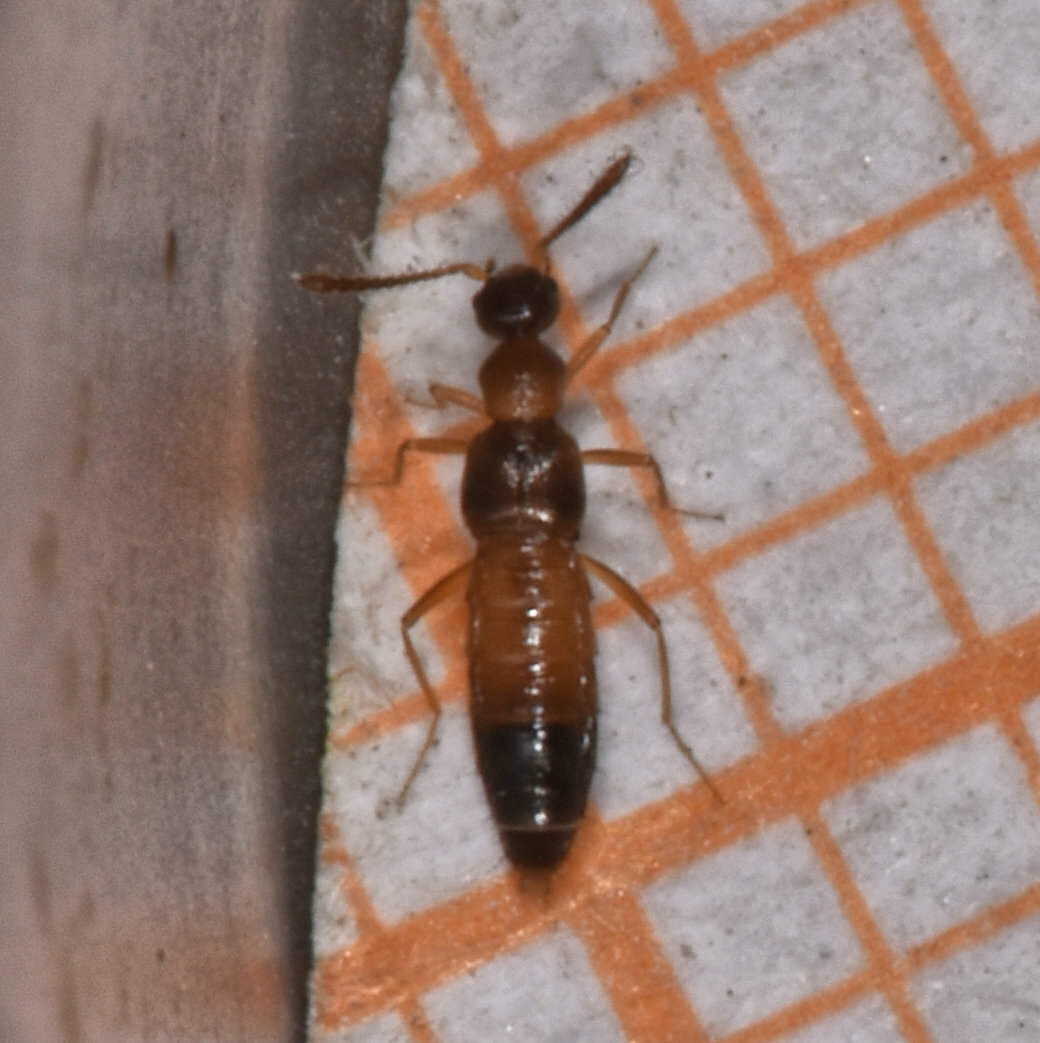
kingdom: Animalia
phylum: Arthropoda
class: Insecta
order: Coleoptera
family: Staphylinidae
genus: Meronera
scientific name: Meronera venustula
